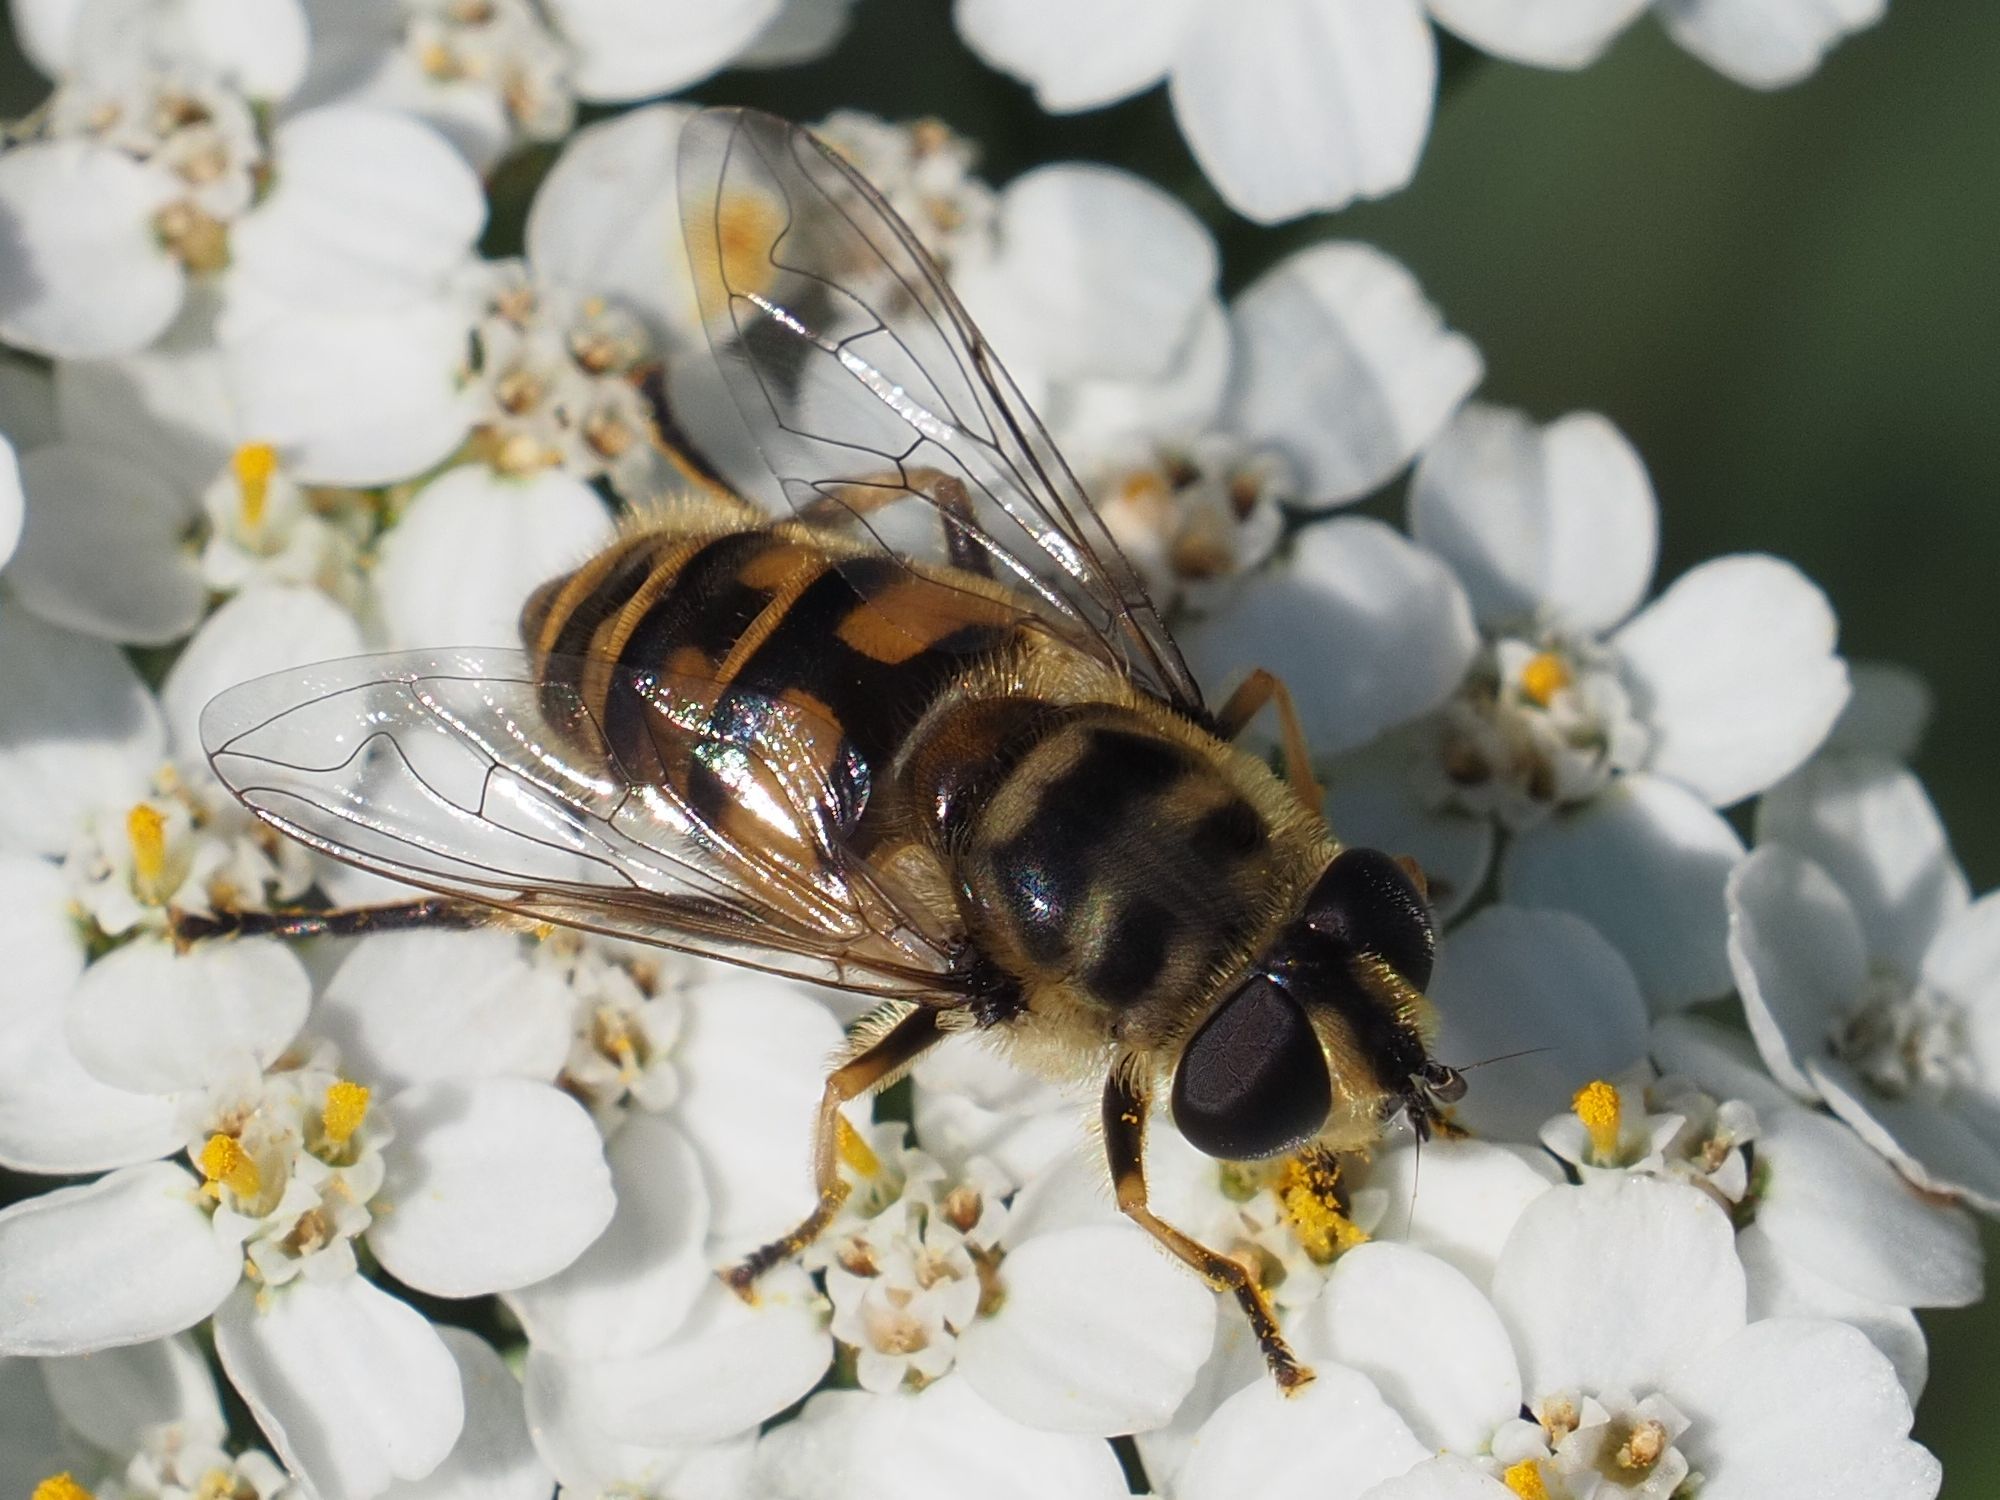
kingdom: Animalia
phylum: Arthropoda
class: Insecta
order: Diptera
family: Syrphidae
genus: Myathropa
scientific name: Myathropa florea
